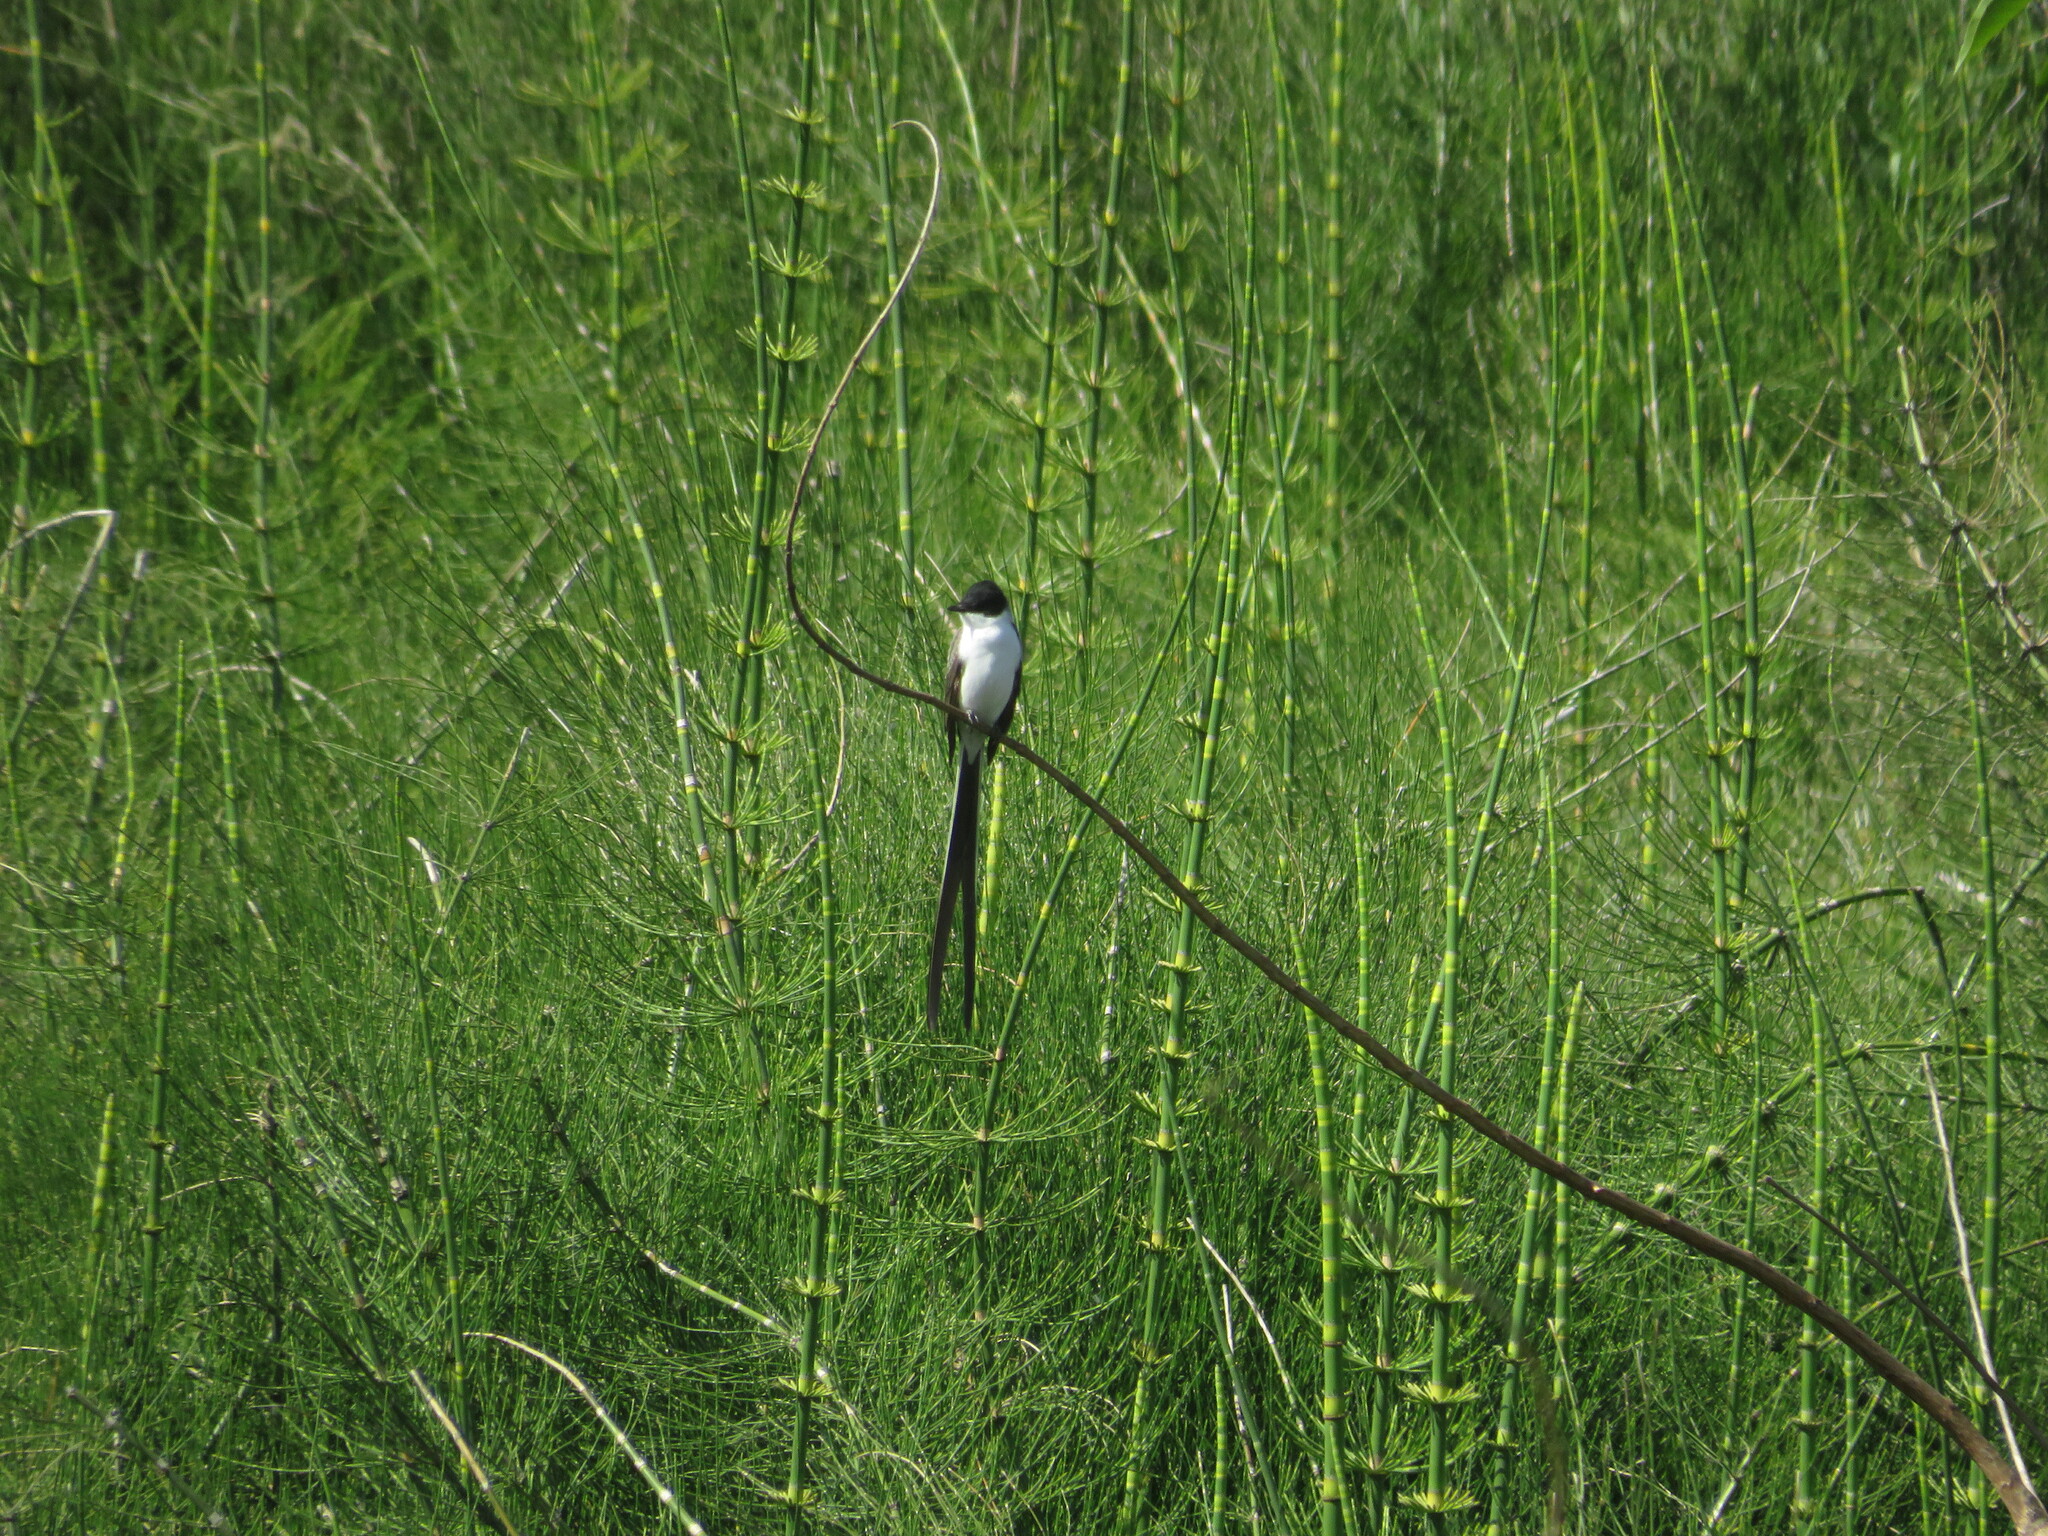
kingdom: Animalia
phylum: Chordata
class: Aves
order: Passeriformes
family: Tyrannidae
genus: Tyrannus
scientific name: Tyrannus savana
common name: Fork-tailed flycatcher
